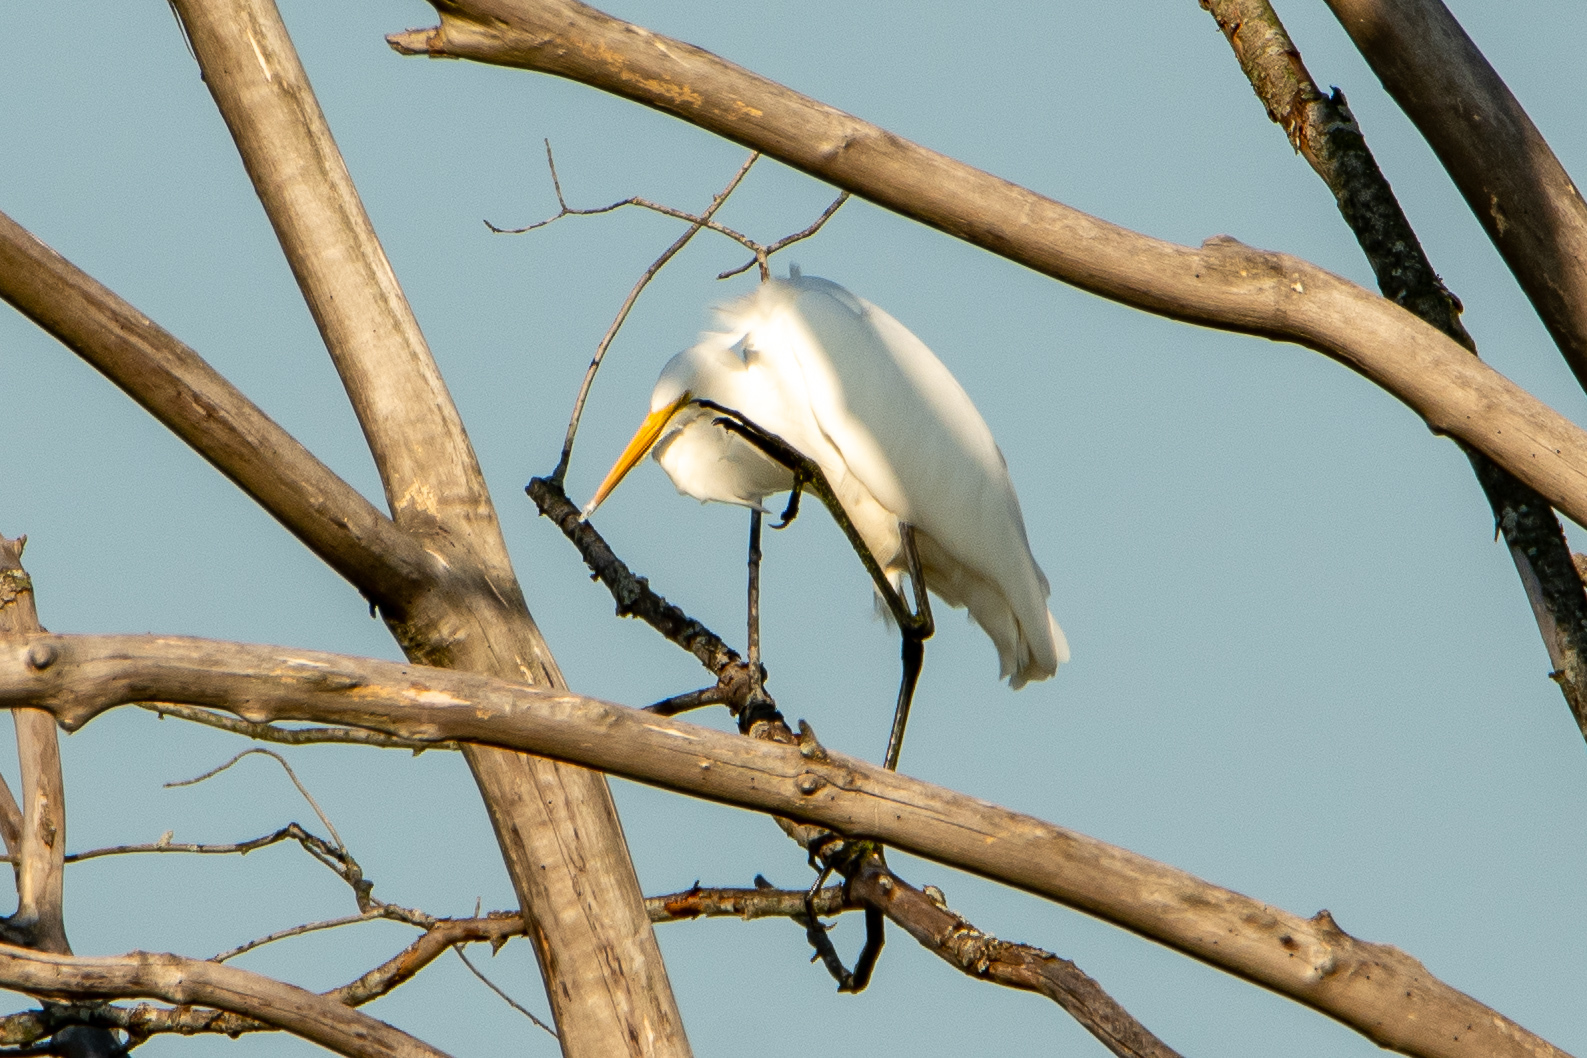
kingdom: Animalia
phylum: Chordata
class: Aves
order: Pelecaniformes
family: Ardeidae
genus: Ardea
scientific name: Ardea alba
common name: Great egret
